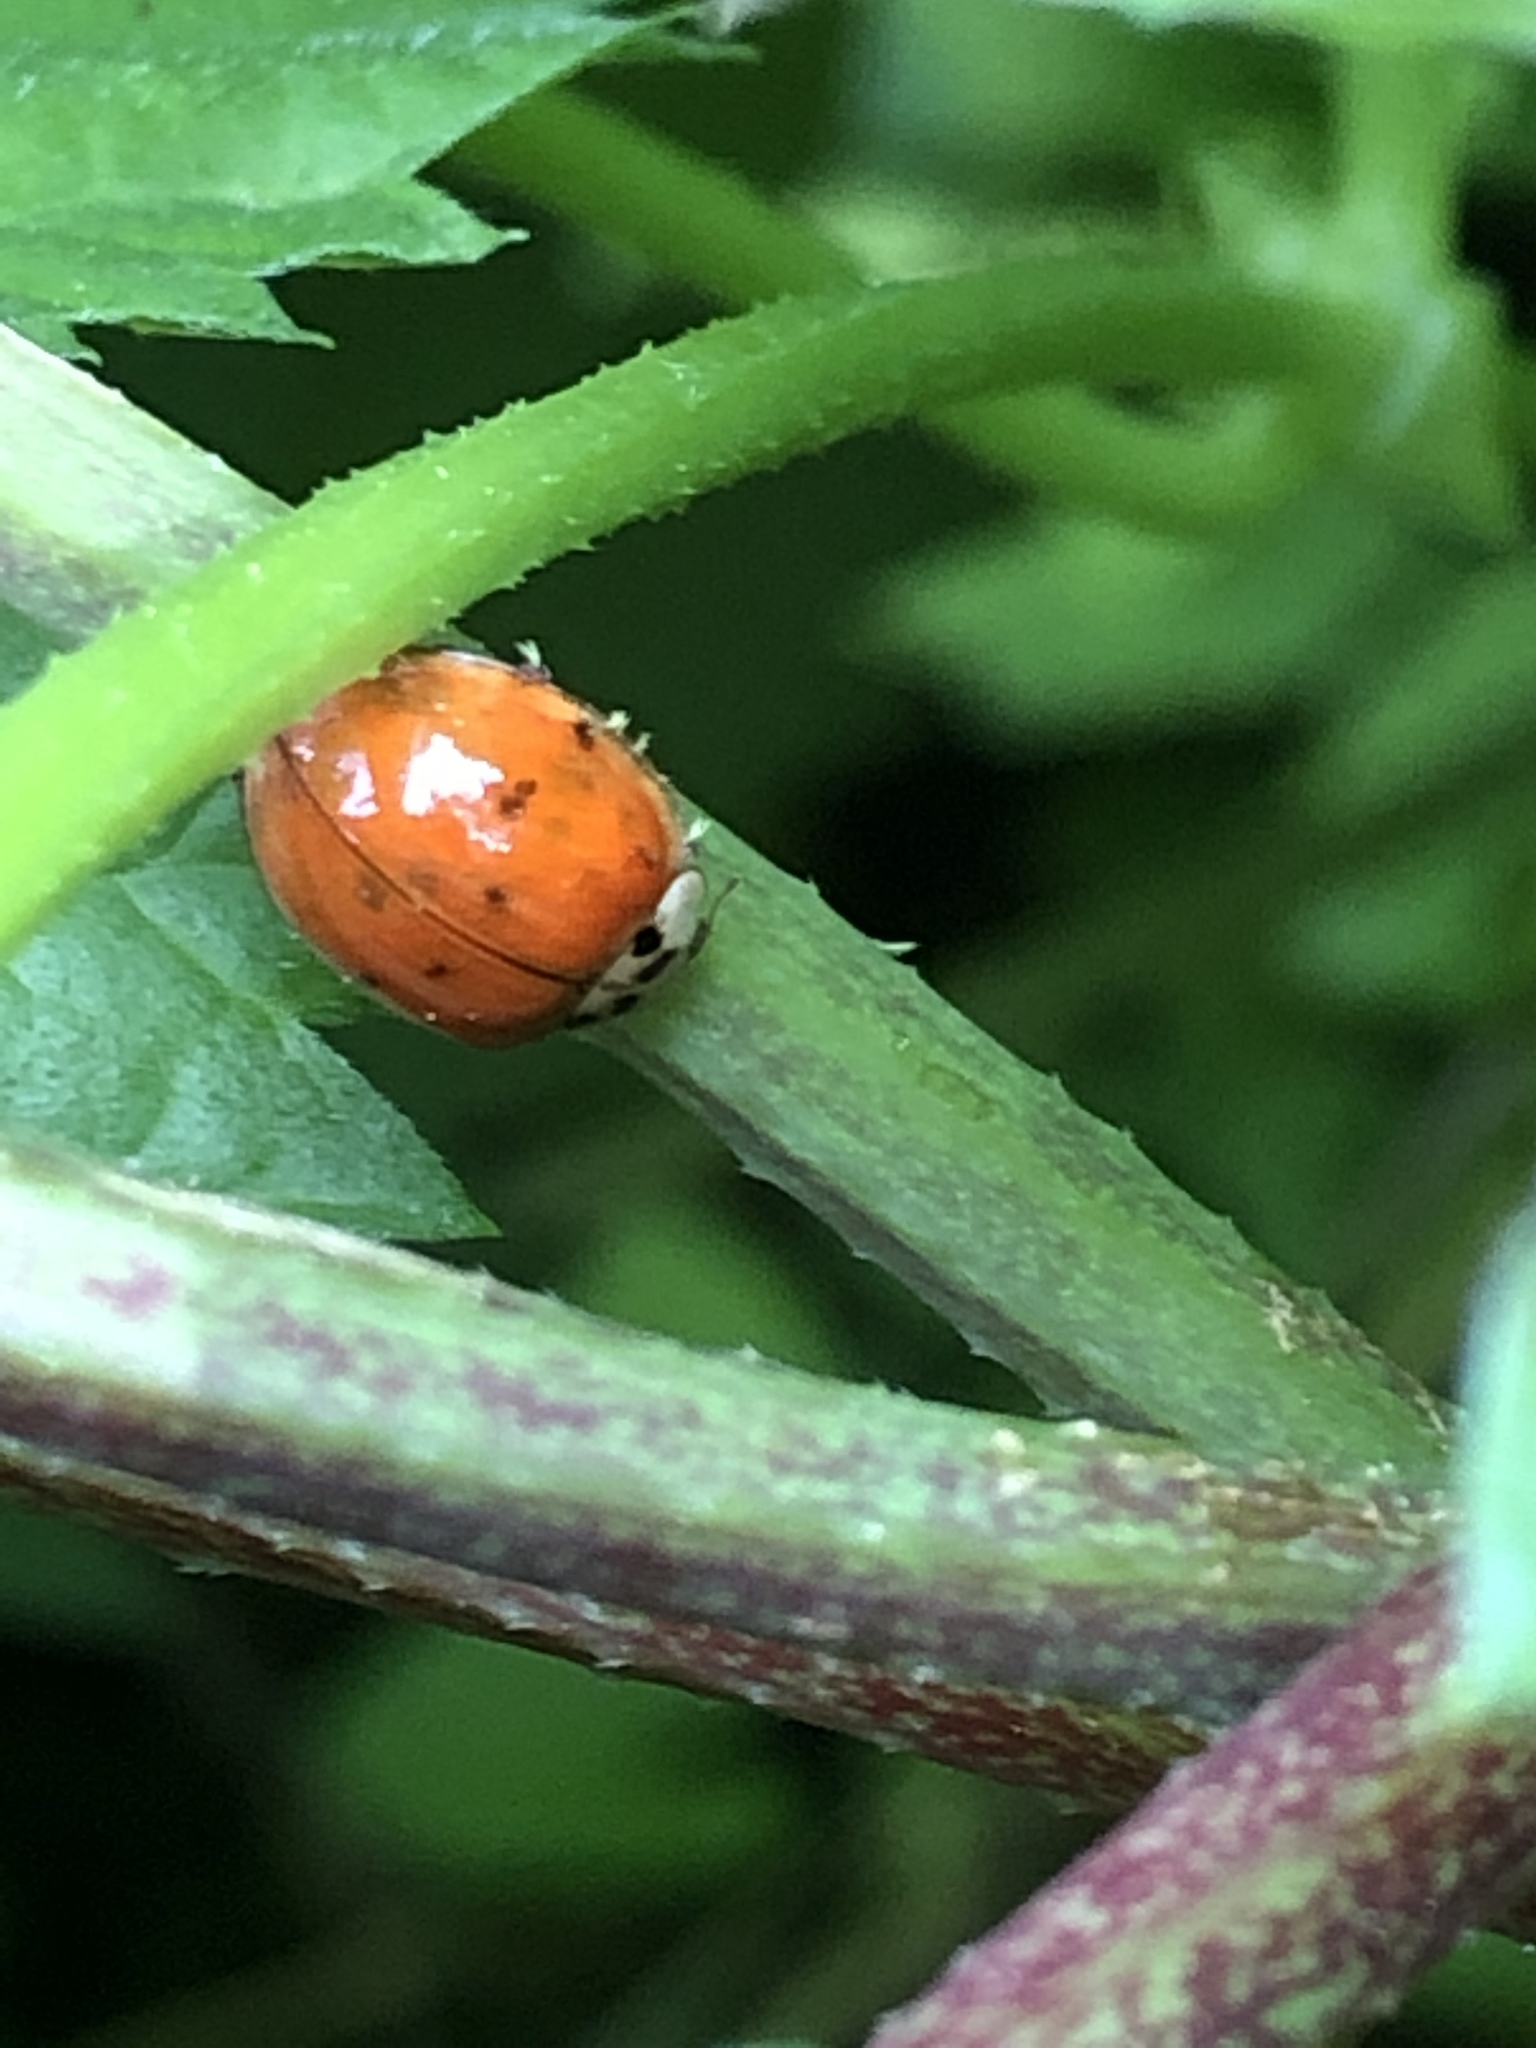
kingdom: Animalia
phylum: Arthropoda
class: Insecta
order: Coleoptera
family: Coccinellidae
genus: Harmonia
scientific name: Harmonia axyridis
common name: Harlequin ladybird
